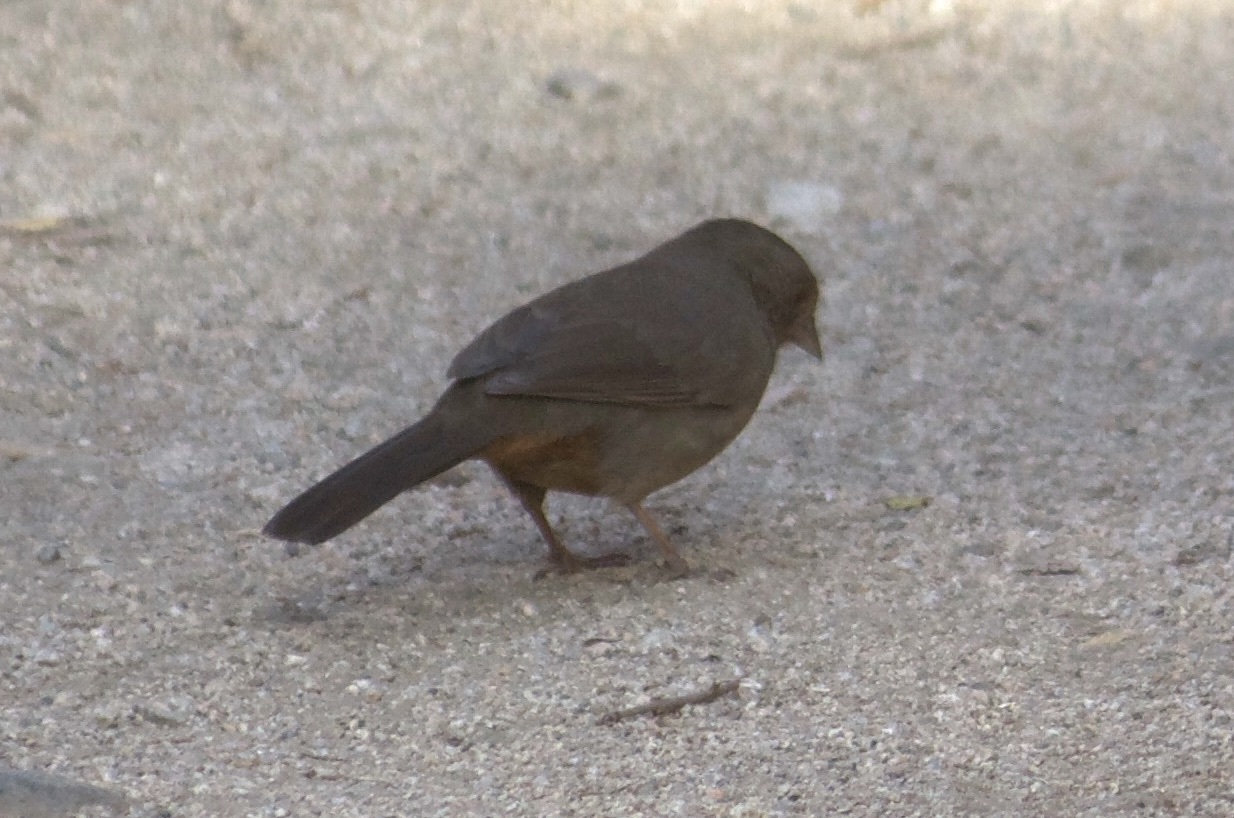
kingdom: Animalia
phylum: Chordata
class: Aves
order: Passeriformes
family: Passerellidae
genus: Melozone
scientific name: Melozone crissalis
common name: California towhee
